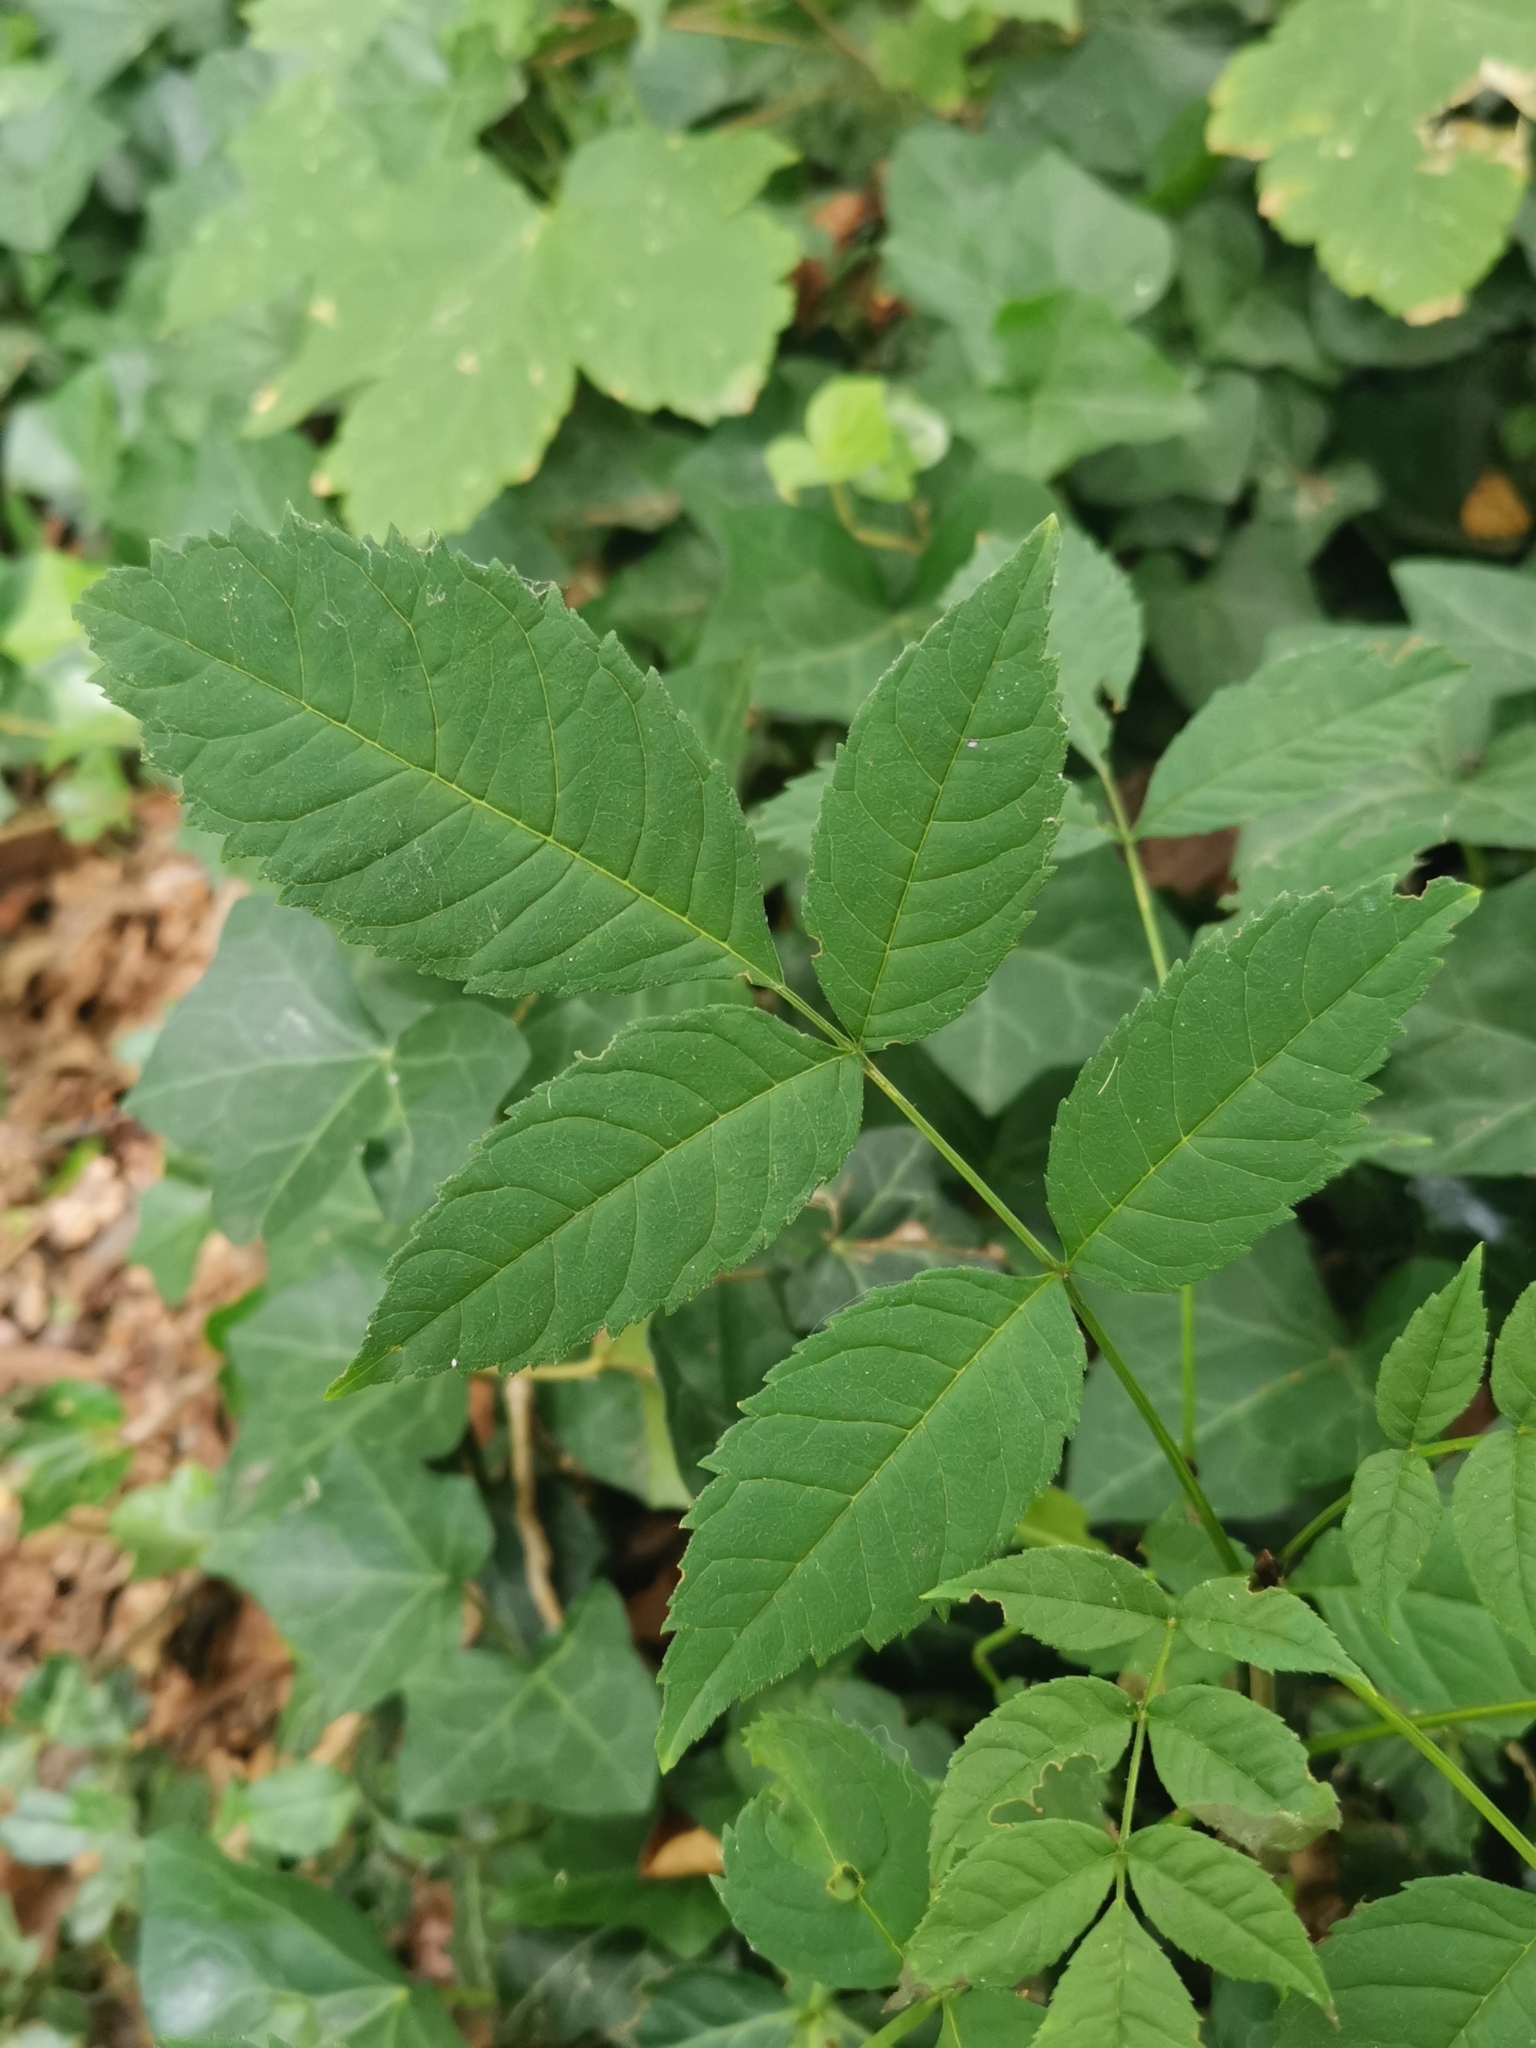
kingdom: Plantae
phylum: Tracheophyta
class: Magnoliopsida
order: Lamiales
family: Oleaceae
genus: Fraxinus
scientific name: Fraxinus excelsior
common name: European ash
